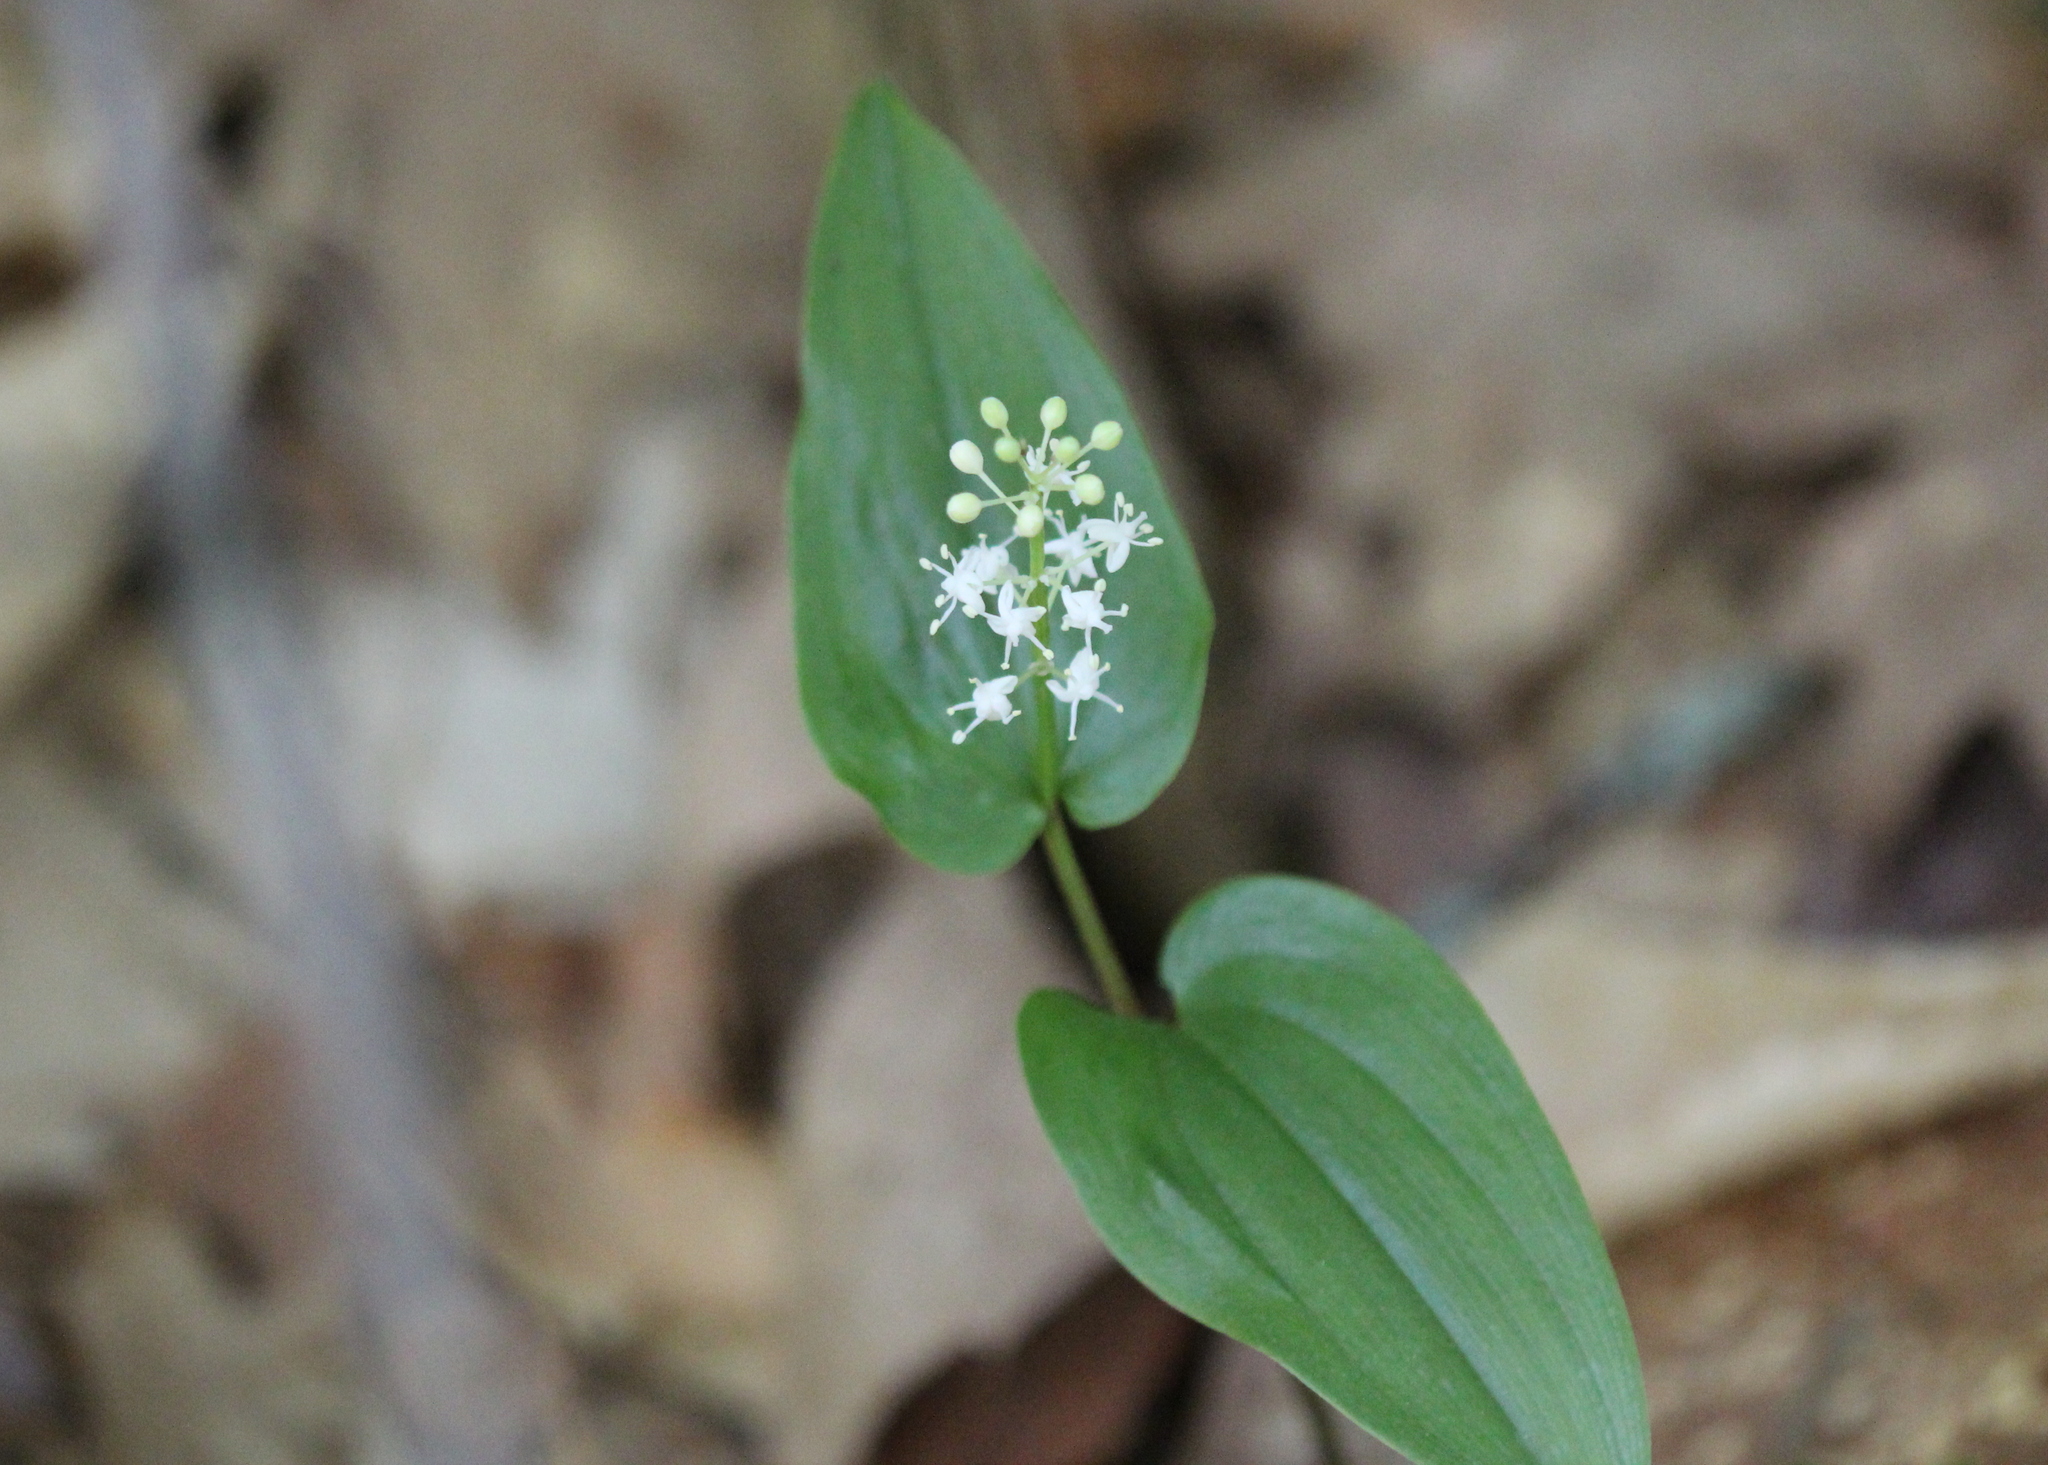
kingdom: Plantae
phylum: Tracheophyta
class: Liliopsida
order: Asparagales
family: Asparagaceae
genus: Maianthemum
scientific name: Maianthemum canadense
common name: False lily-of-the-valley
